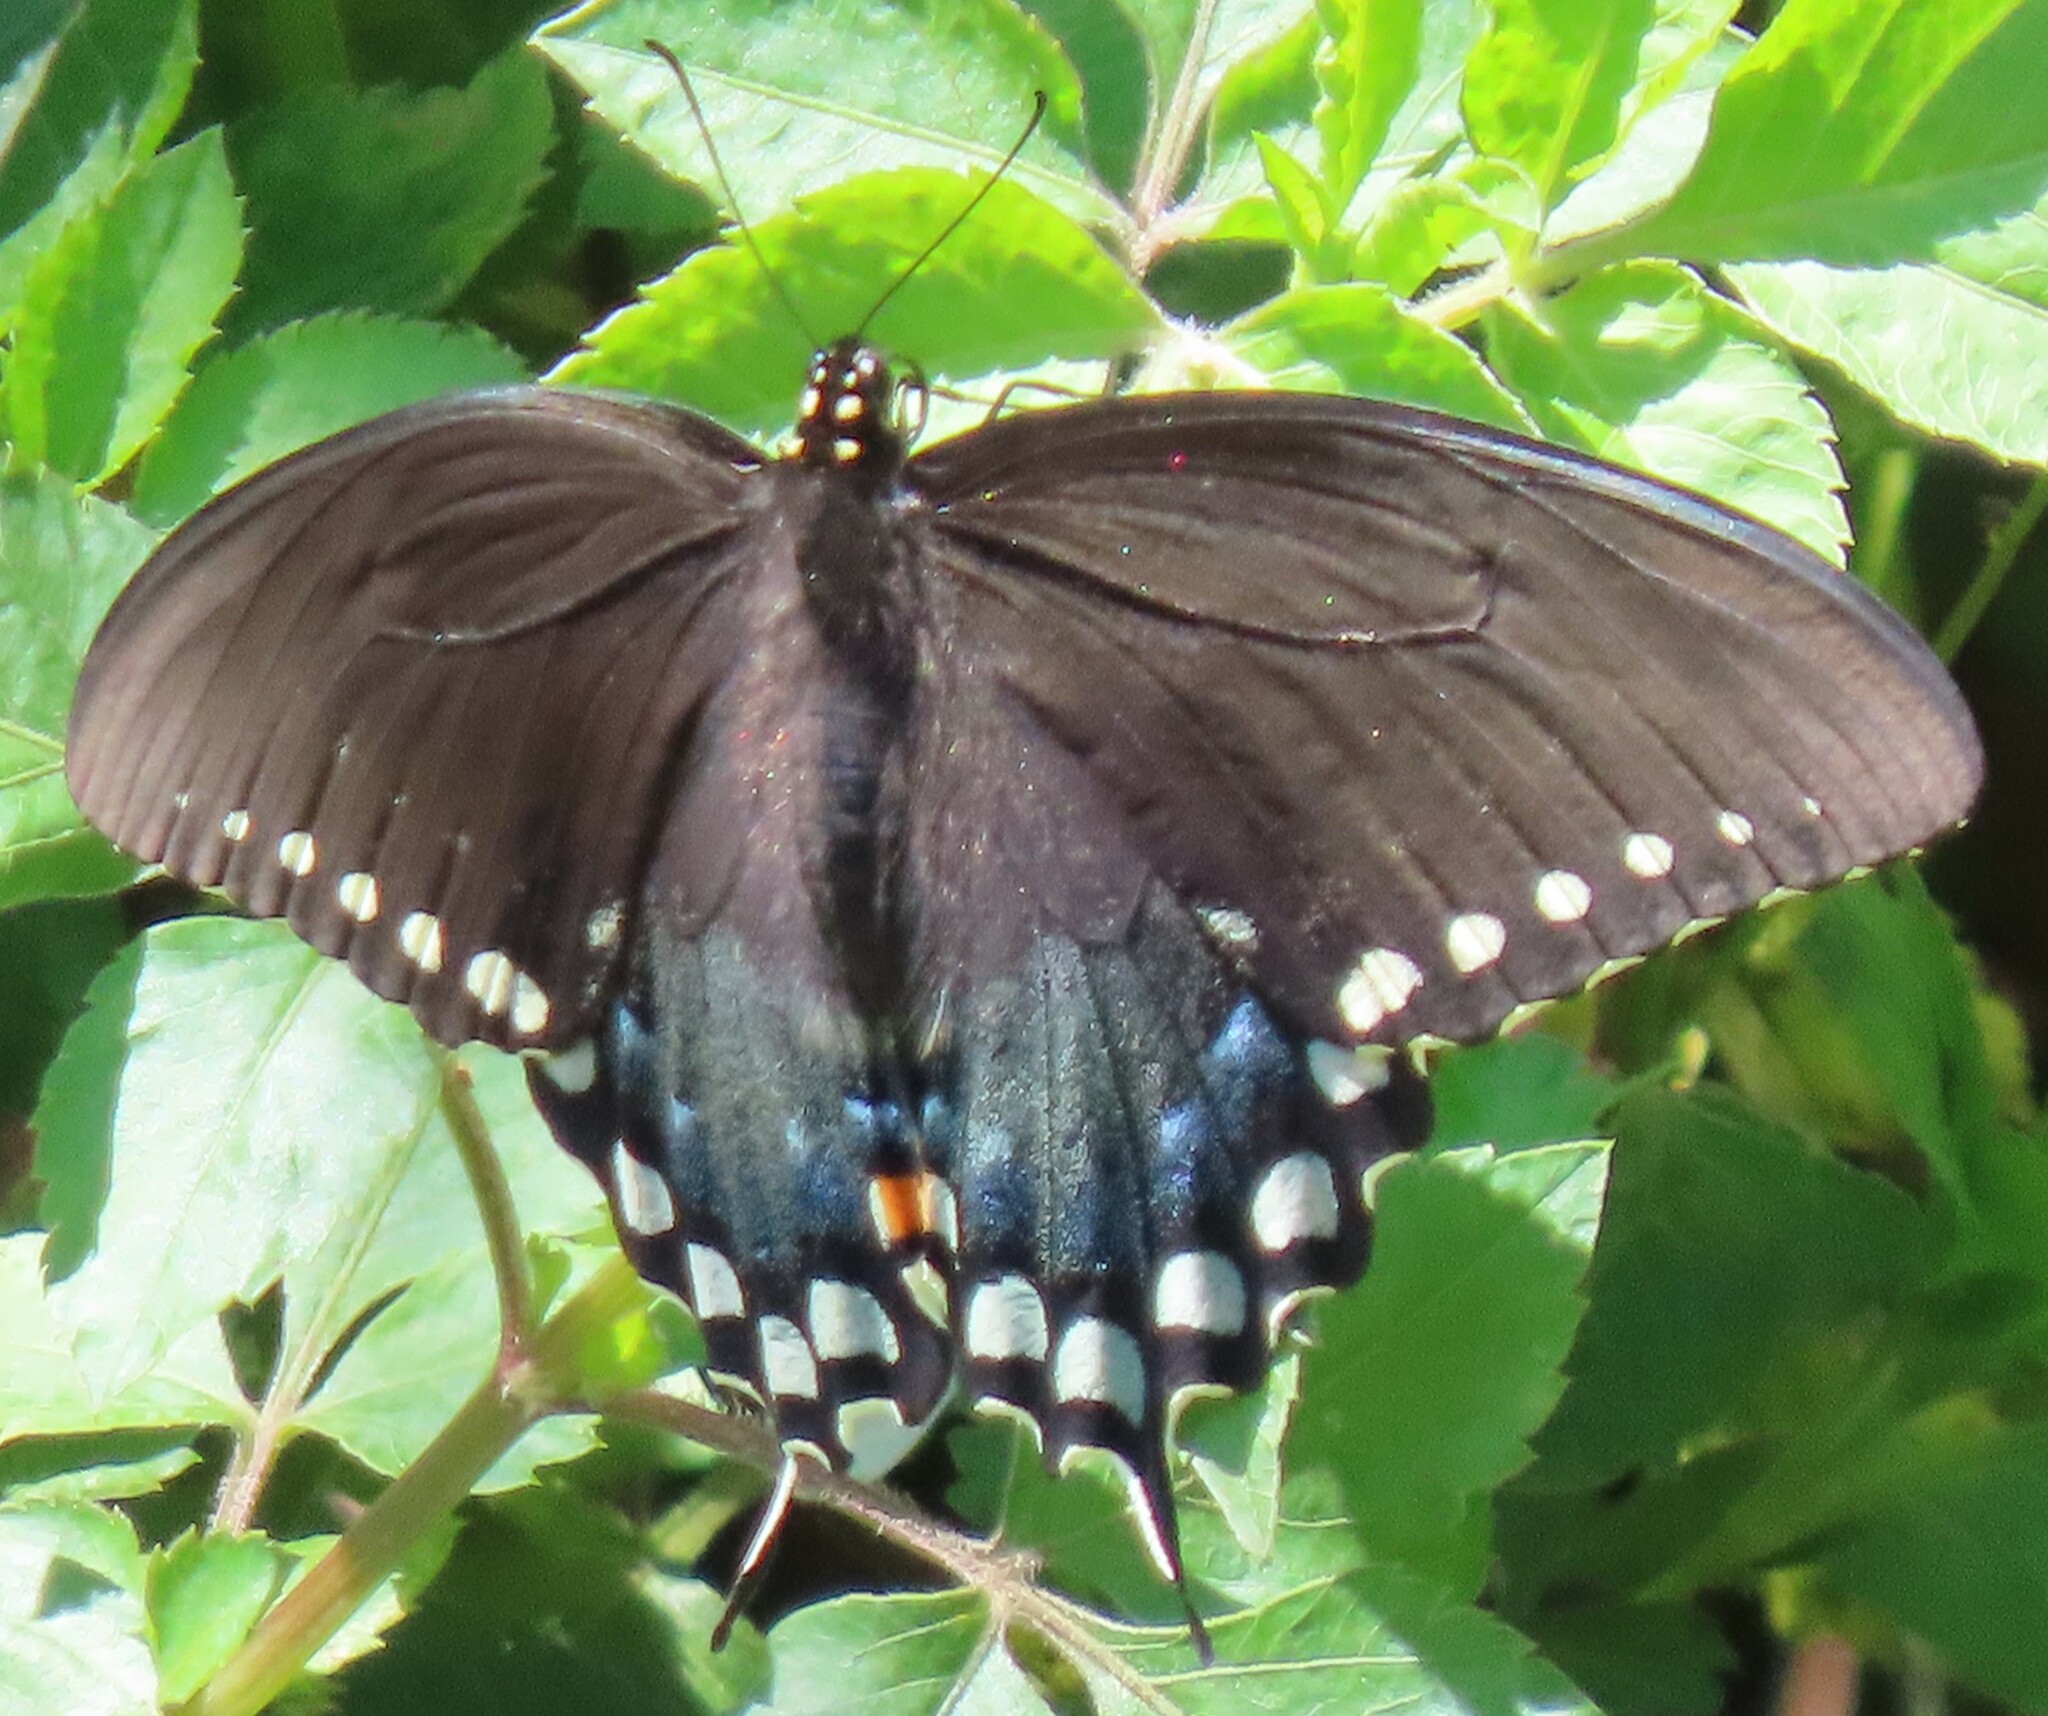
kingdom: Animalia
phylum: Arthropoda
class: Insecta
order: Lepidoptera
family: Papilionidae
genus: Papilio
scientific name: Papilio troilus
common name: Spicebush swallowtail
